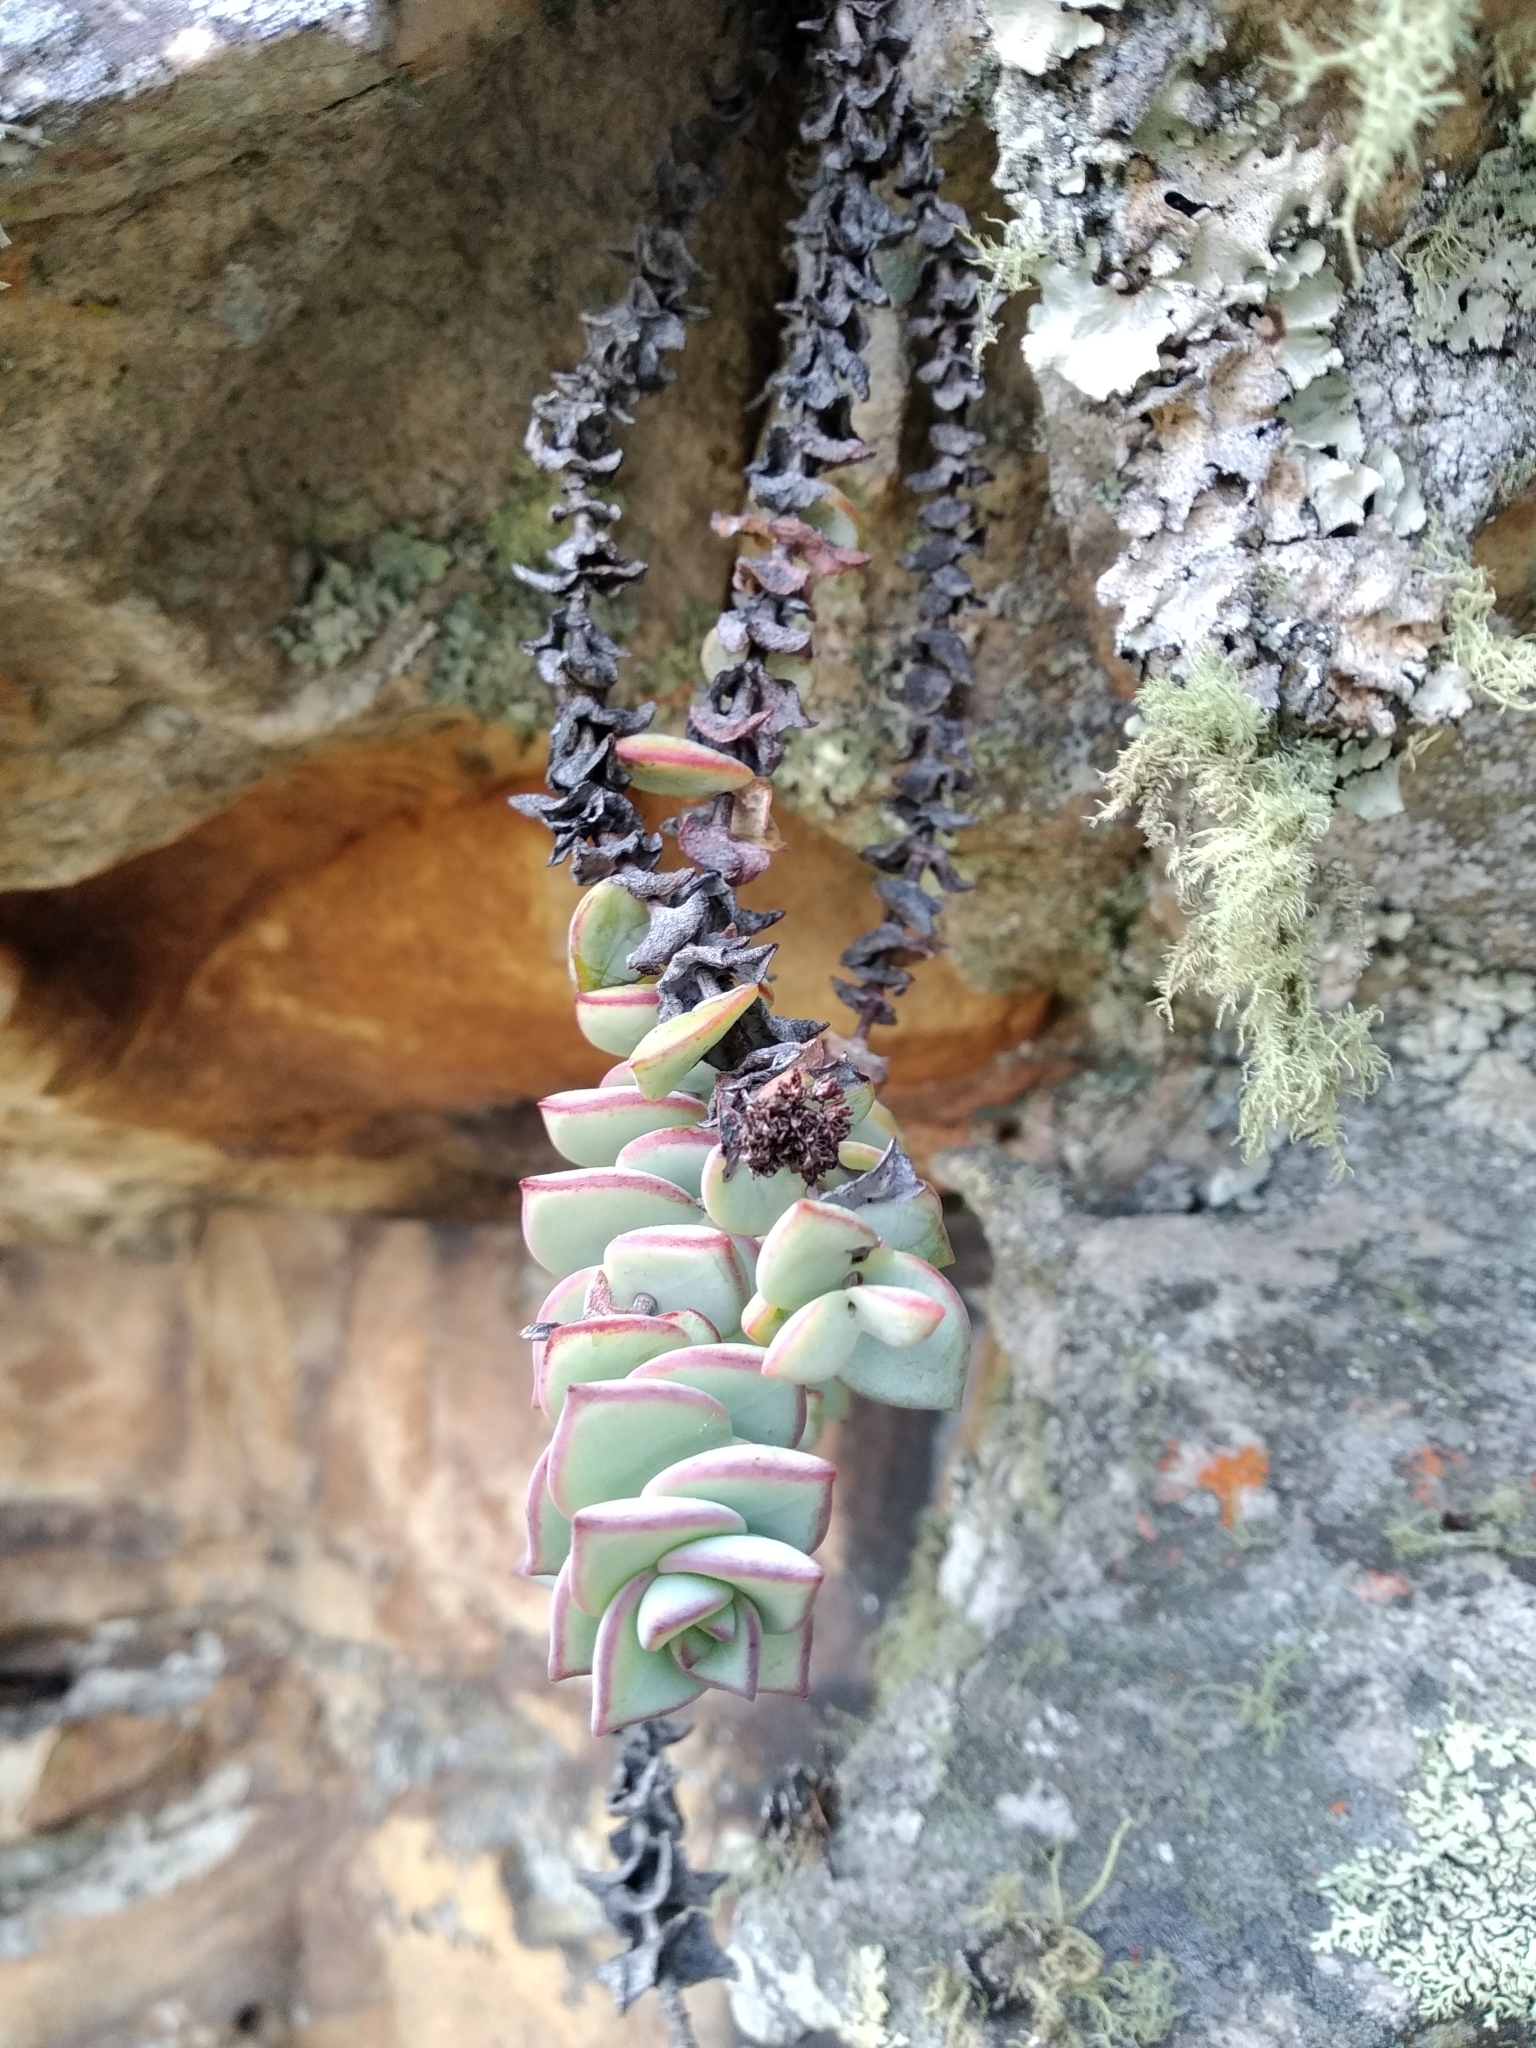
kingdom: Plantae
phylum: Tracheophyta
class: Magnoliopsida
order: Saxifragales
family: Crassulaceae
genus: Crassula
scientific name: Crassula rupestris
